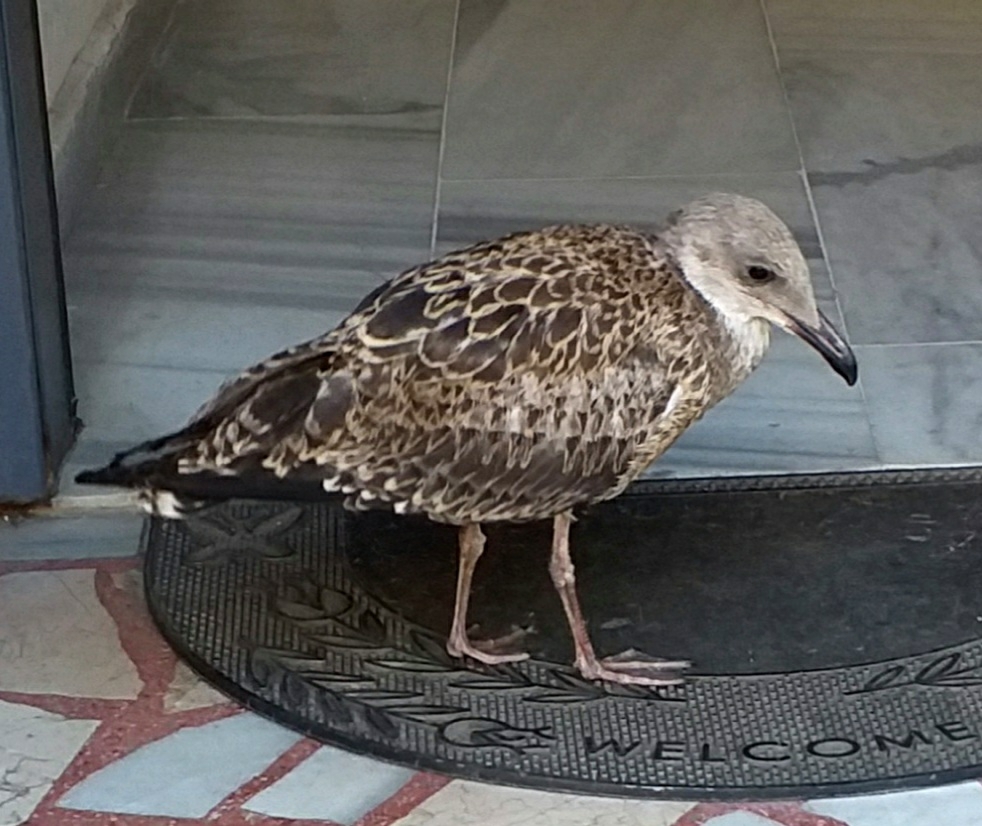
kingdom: Animalia
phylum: Chordata
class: Aves
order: Charadriiformes
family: Laridae
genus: Larus
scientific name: Larus michahellis
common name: Yellow-legged gull
